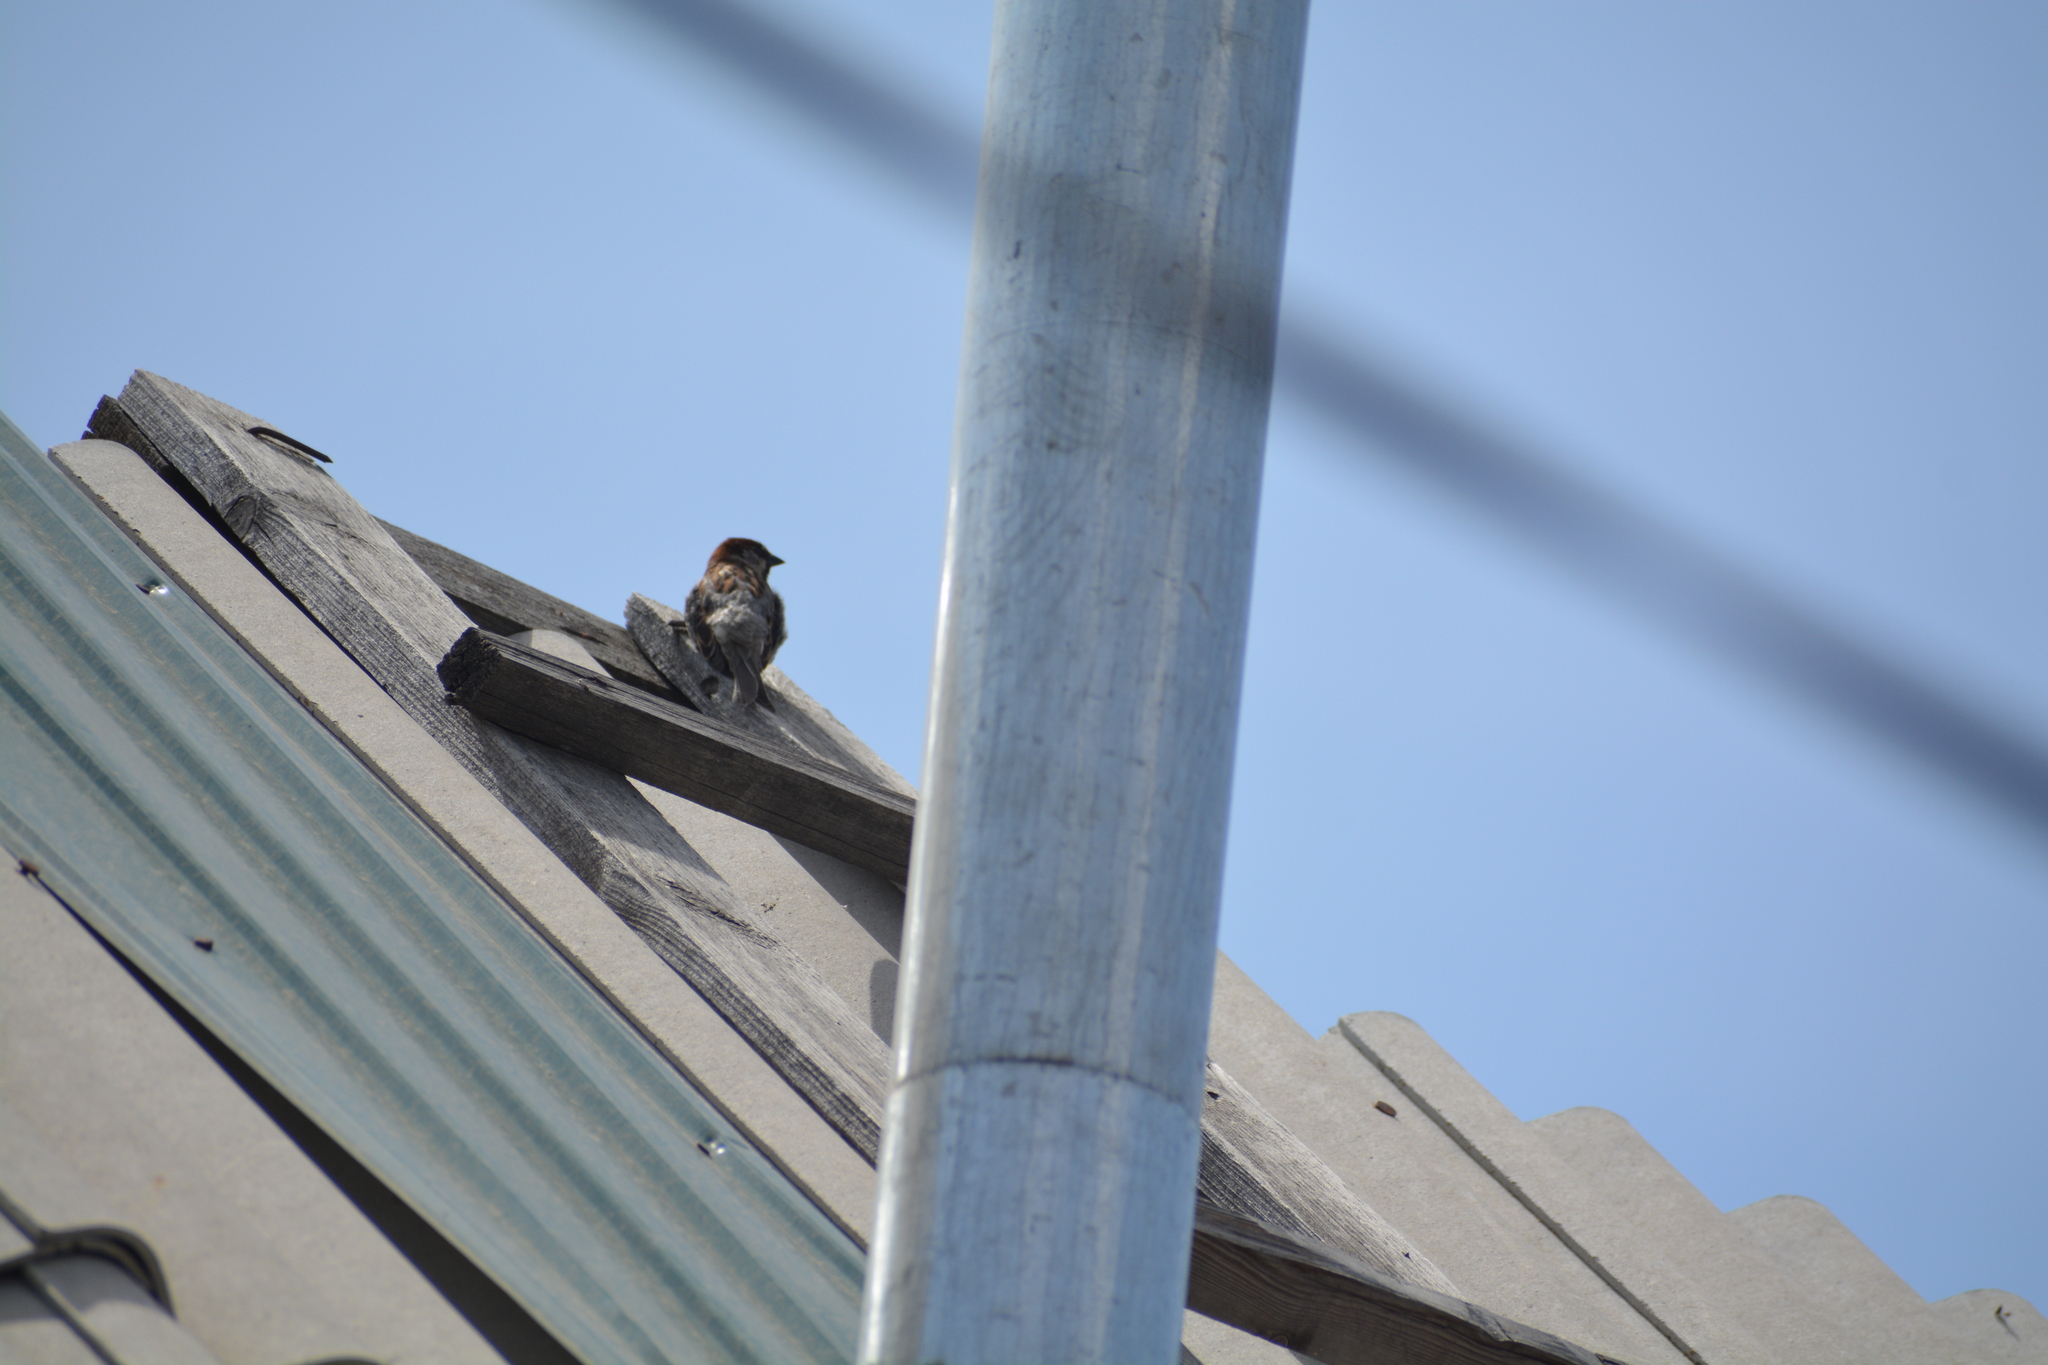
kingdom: Animalia
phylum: Chordata
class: Aves
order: Passeriformes
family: Passeridae
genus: Passer
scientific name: Passer domesticus
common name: House sparrow
